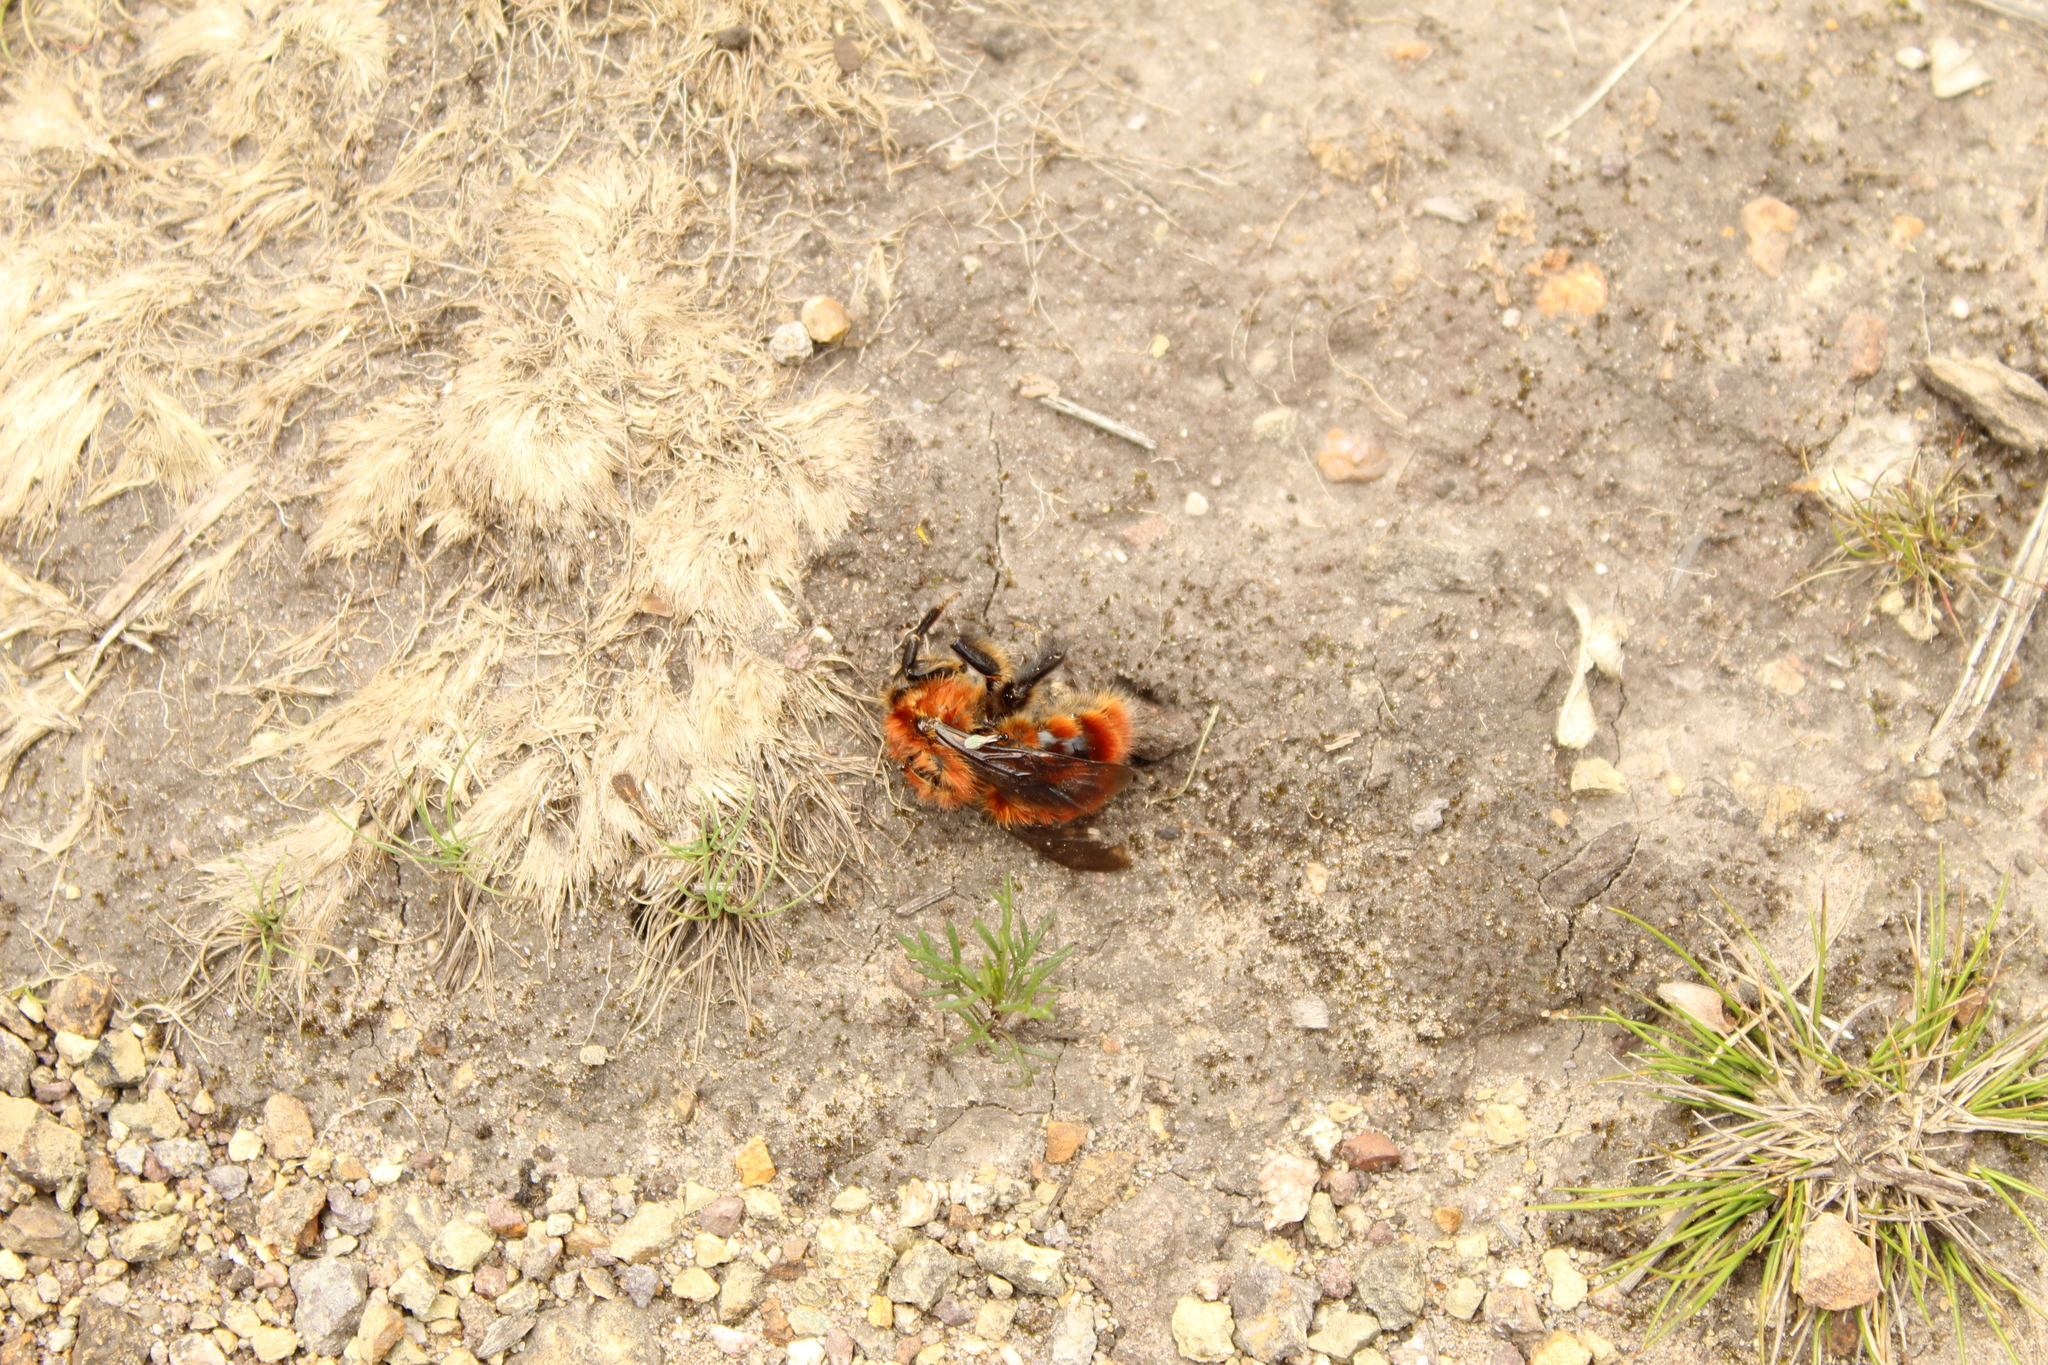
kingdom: Animalia
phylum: Arthropoda
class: Insecta
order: Hymenoptera
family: Apidae
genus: Bombus
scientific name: Bombus rubicundus
